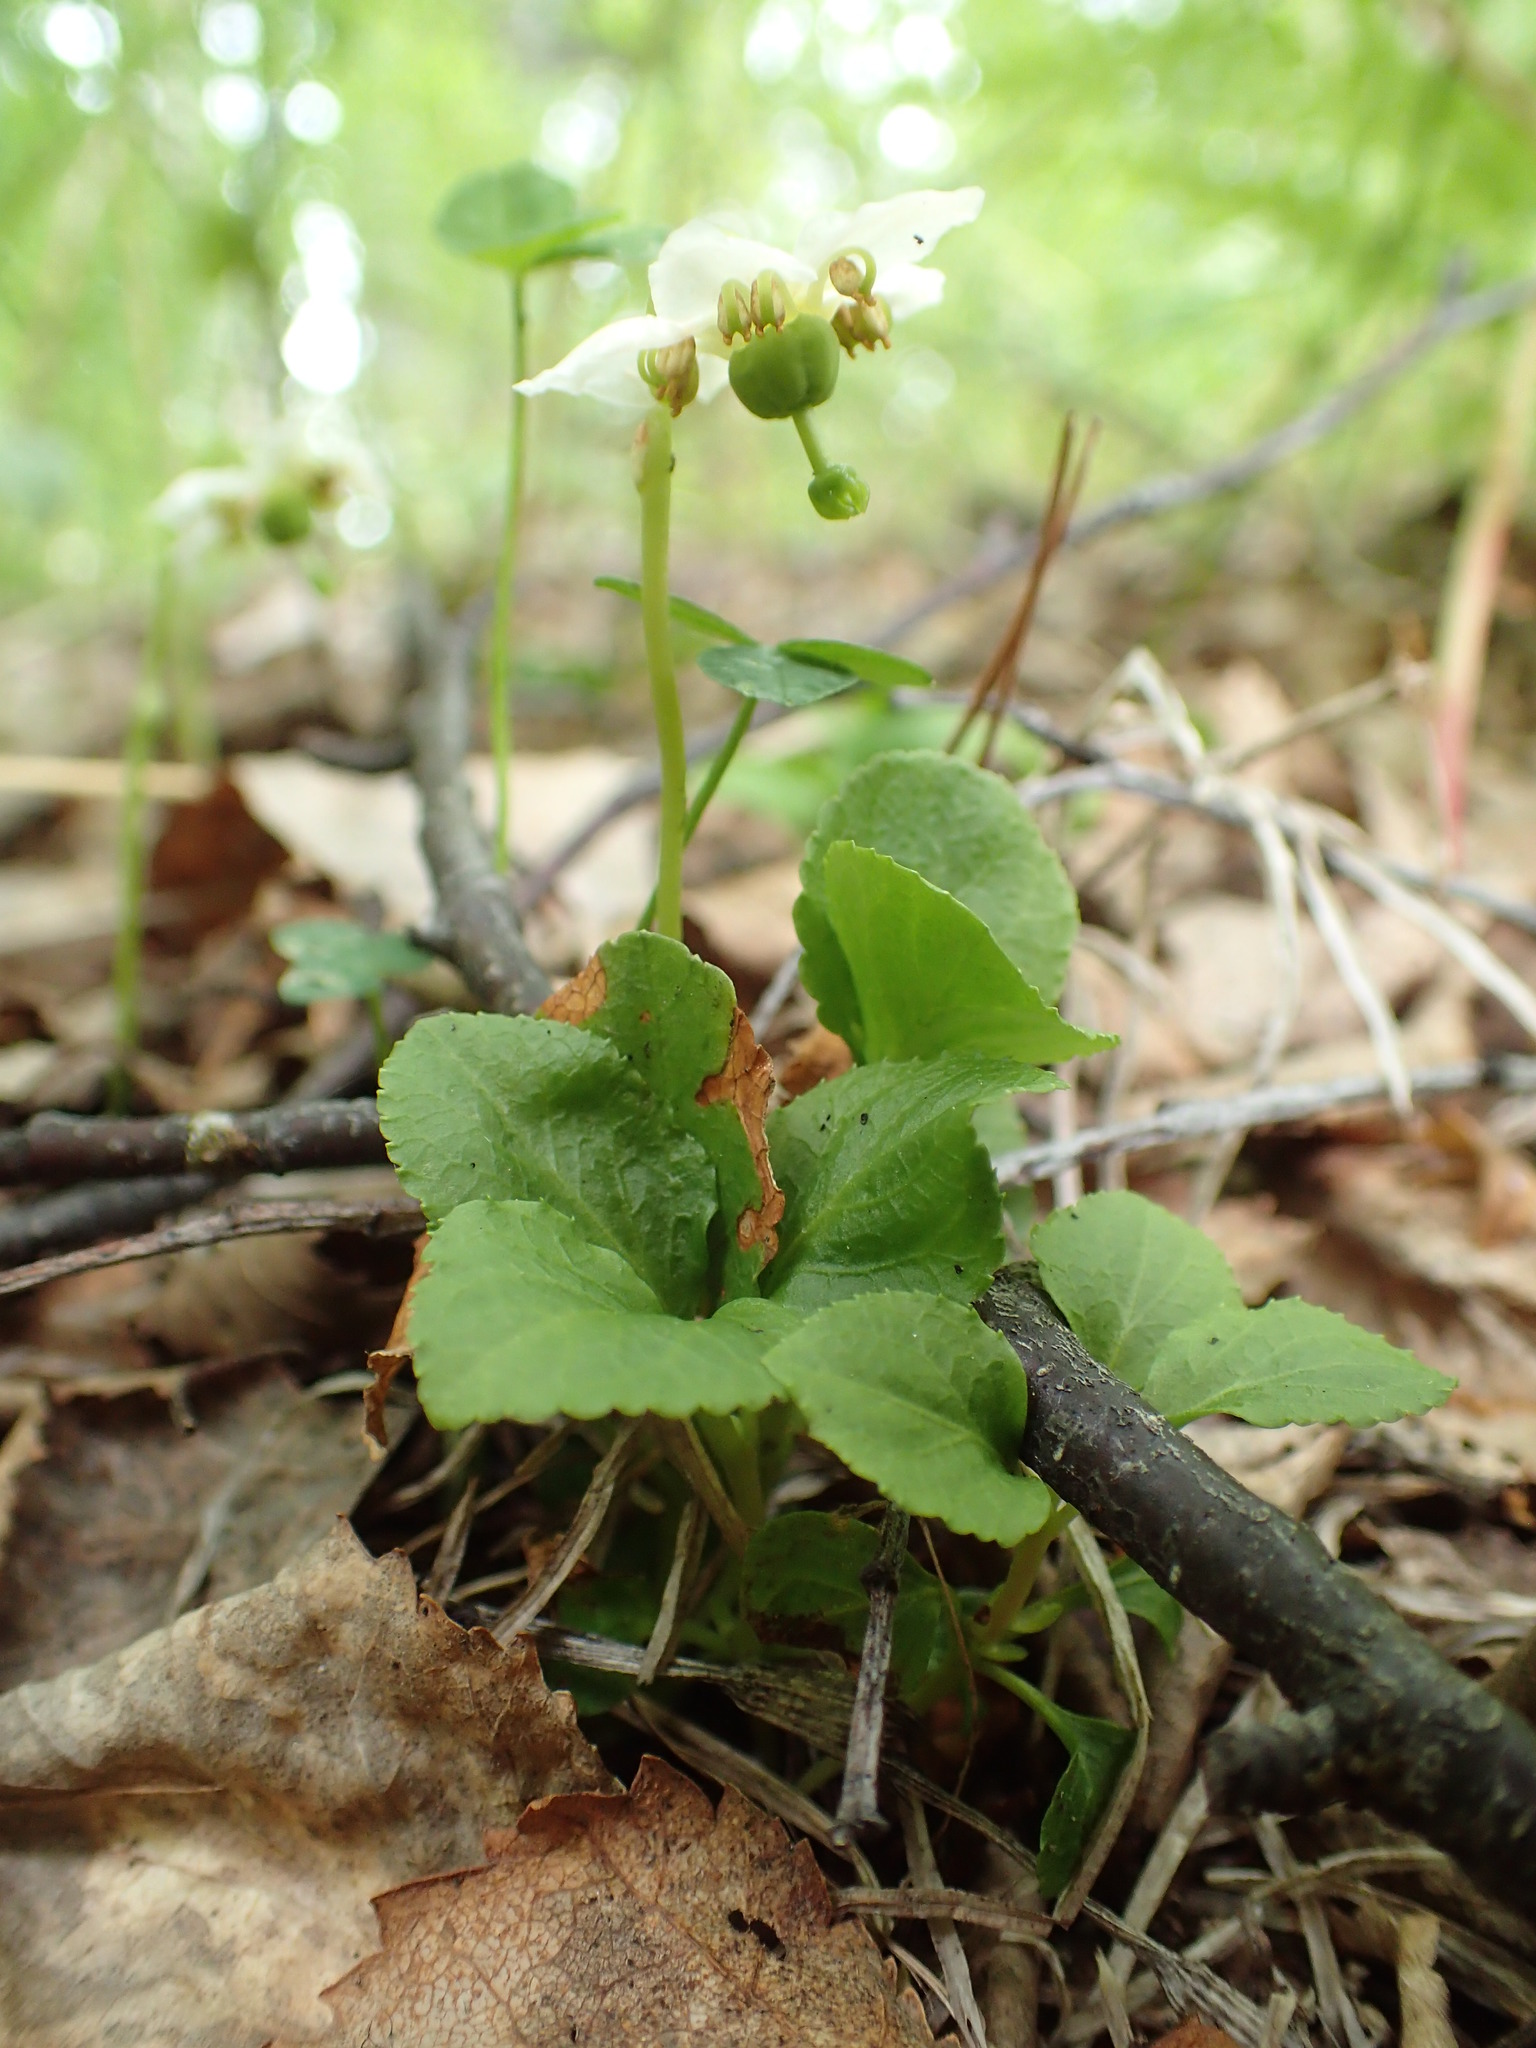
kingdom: Plantae
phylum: Tracheophyta
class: Magnoliopsida
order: Ericales
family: Ericaceae
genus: Moneses
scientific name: Moneses uniflora
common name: One-flowered wintergreen
